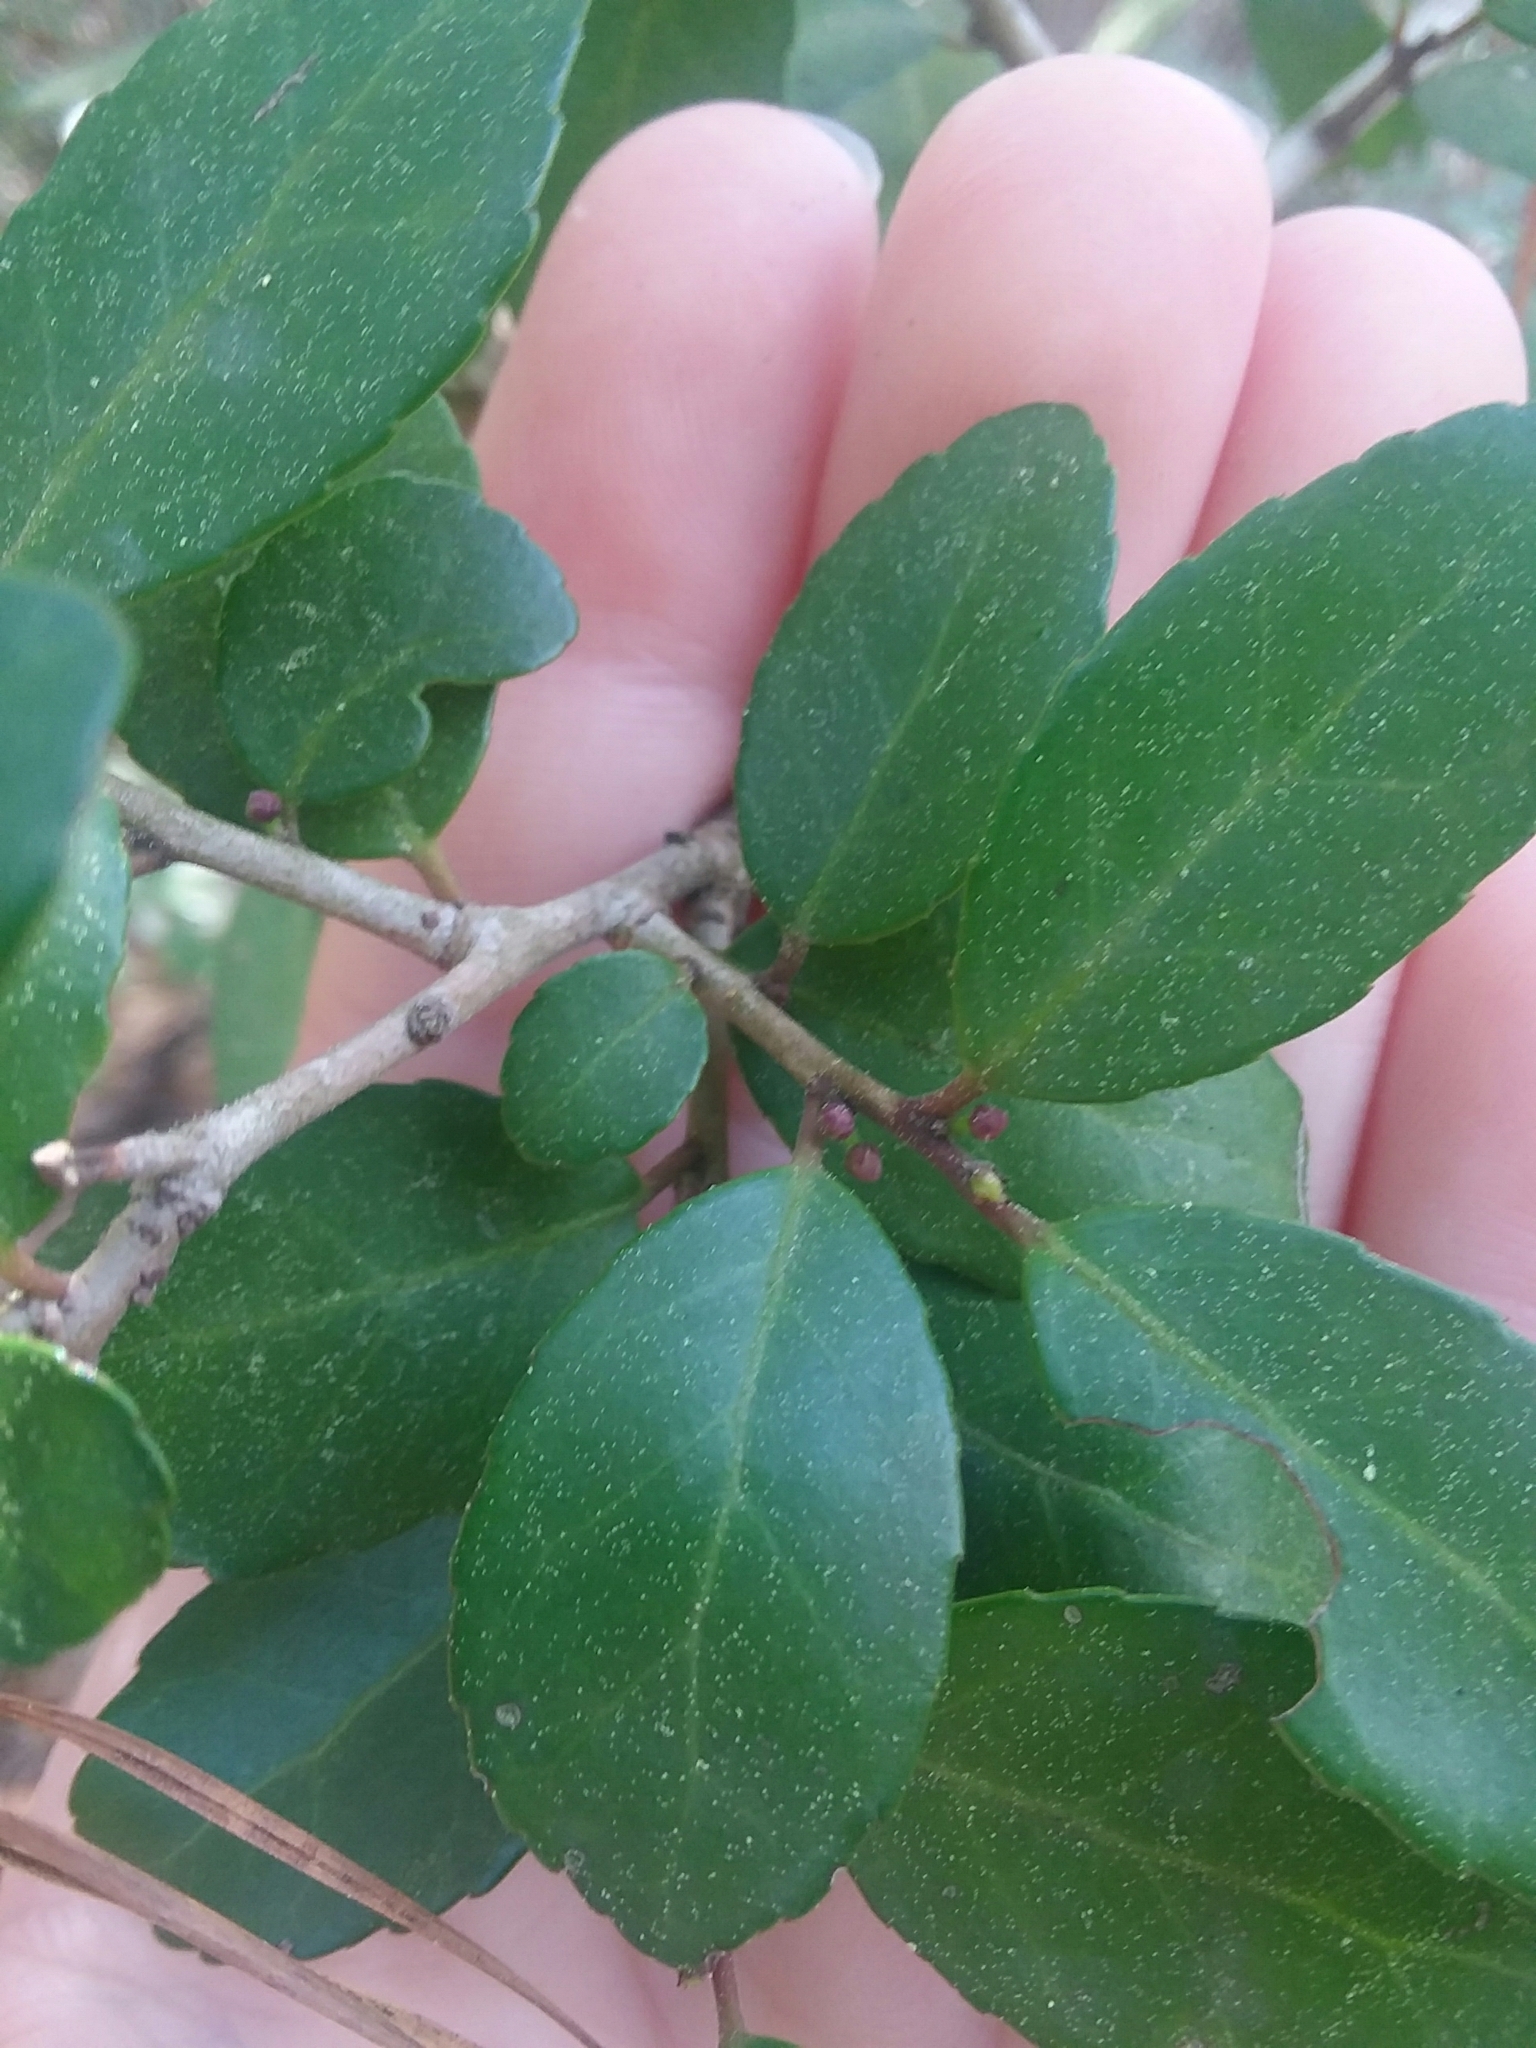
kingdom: Plantae
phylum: Tracheophyta
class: Magnoliopsida
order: Aquifoliales
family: Aquifoliaceae
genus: Ilex
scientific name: Ilex vomitoria
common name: Yaupon holly
